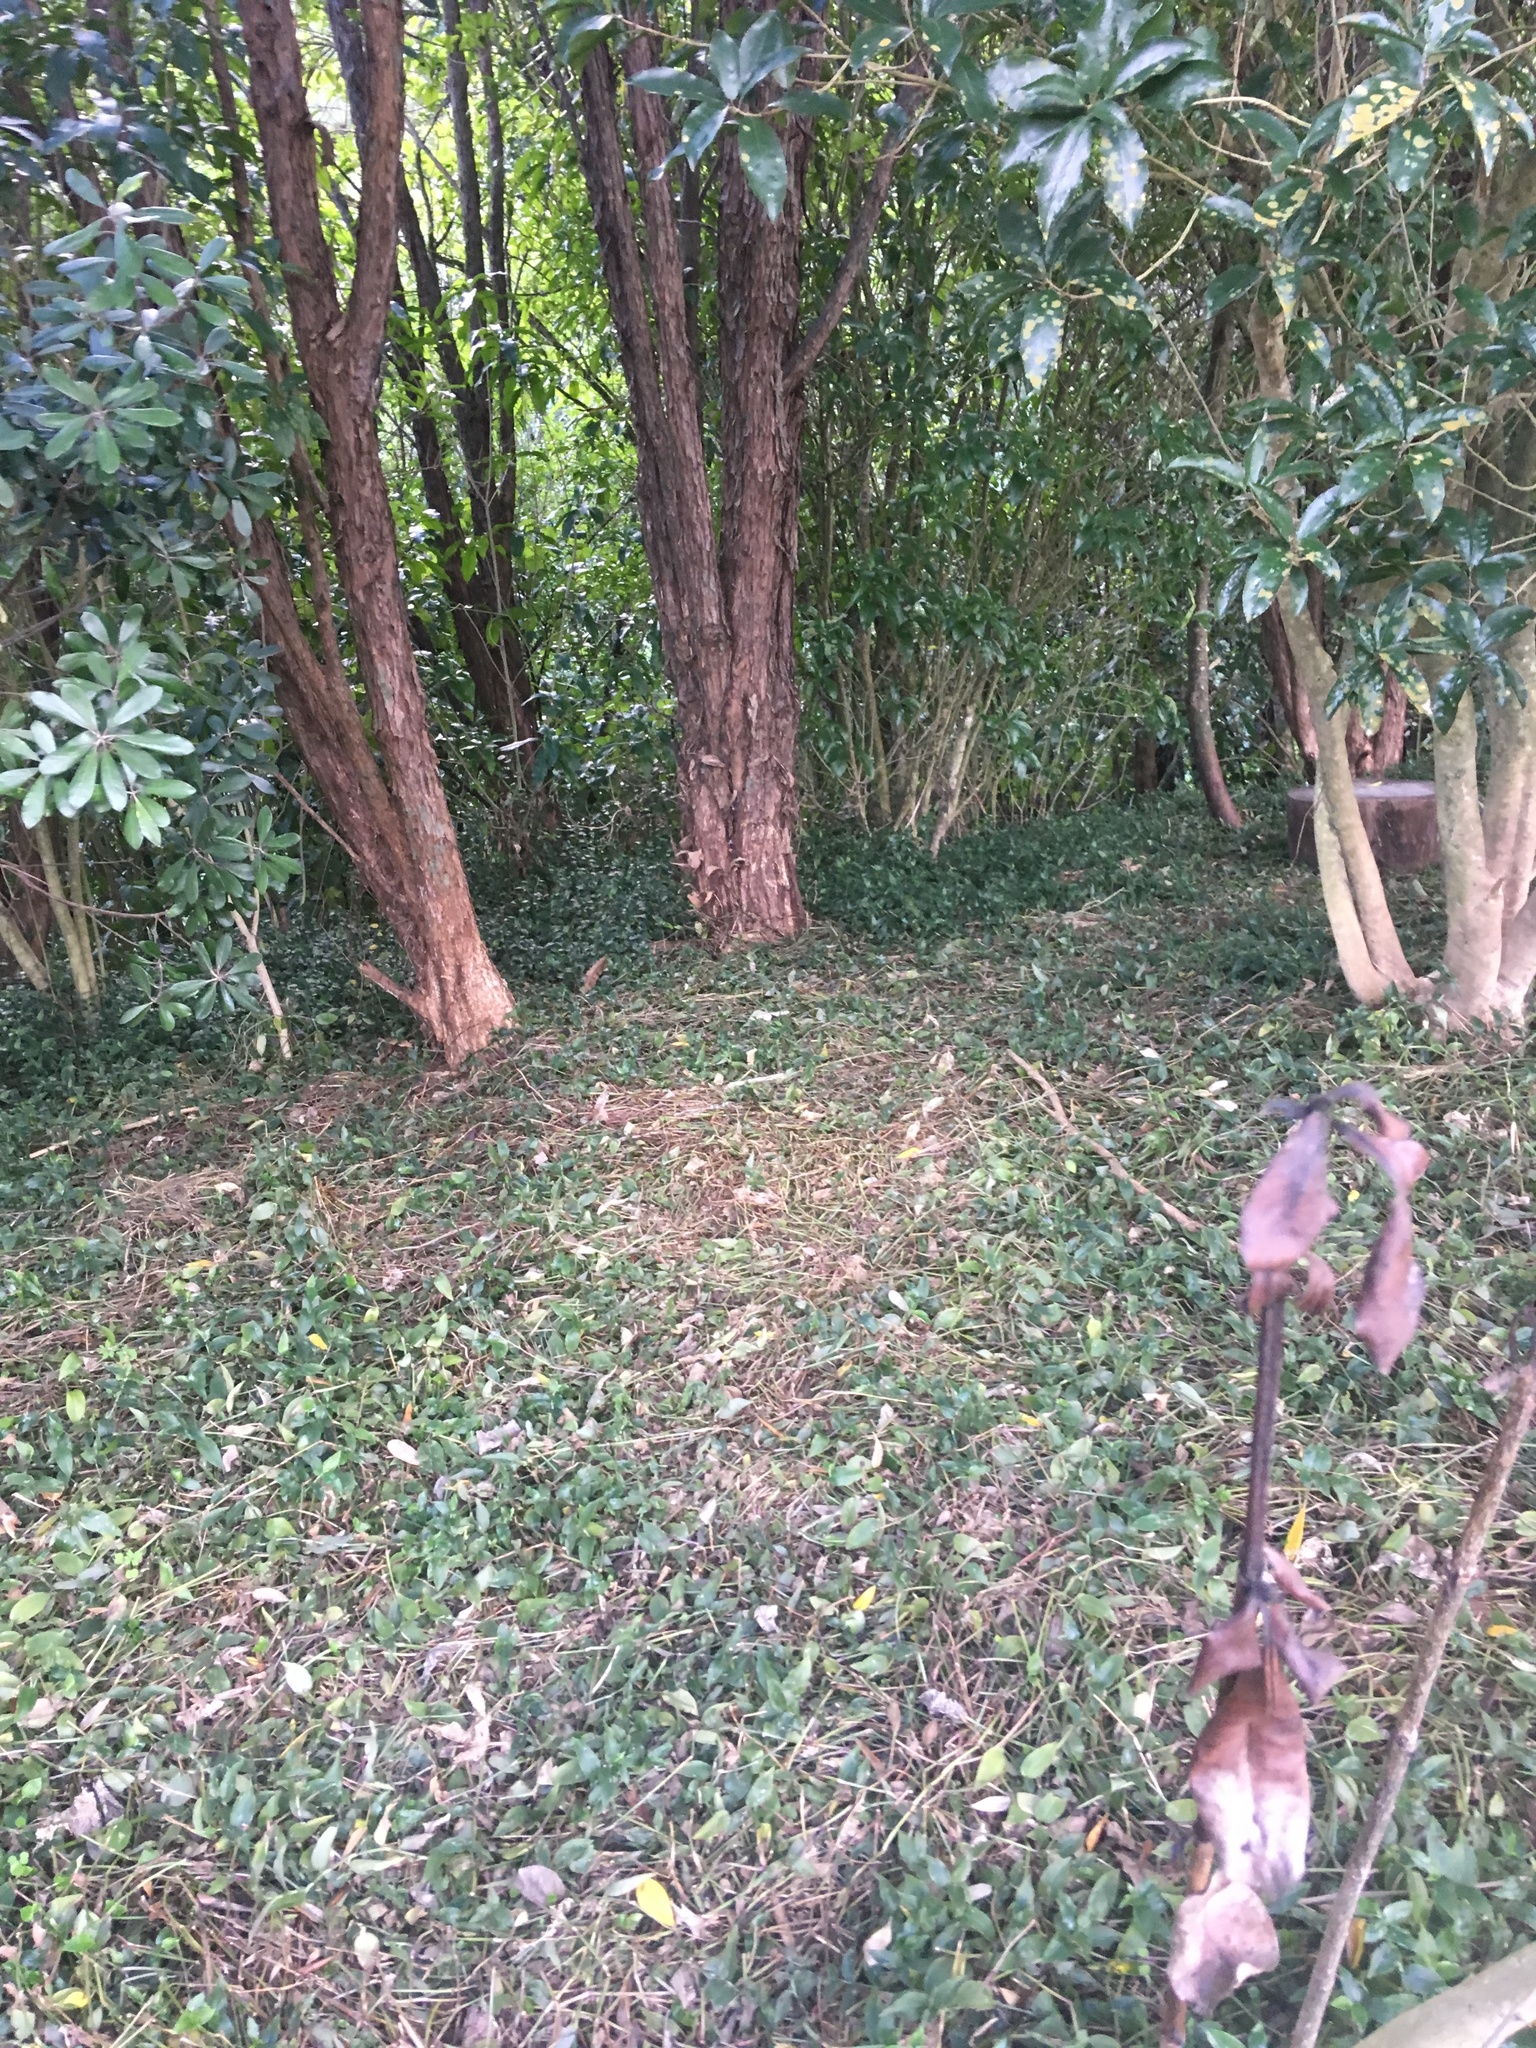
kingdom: Plantae
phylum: Tracheophyta
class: Liliopsida
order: Commelinales
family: Commelinaceae
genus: Tradescantia
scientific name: Tradescantia fluminensis
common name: Wandering-jew
